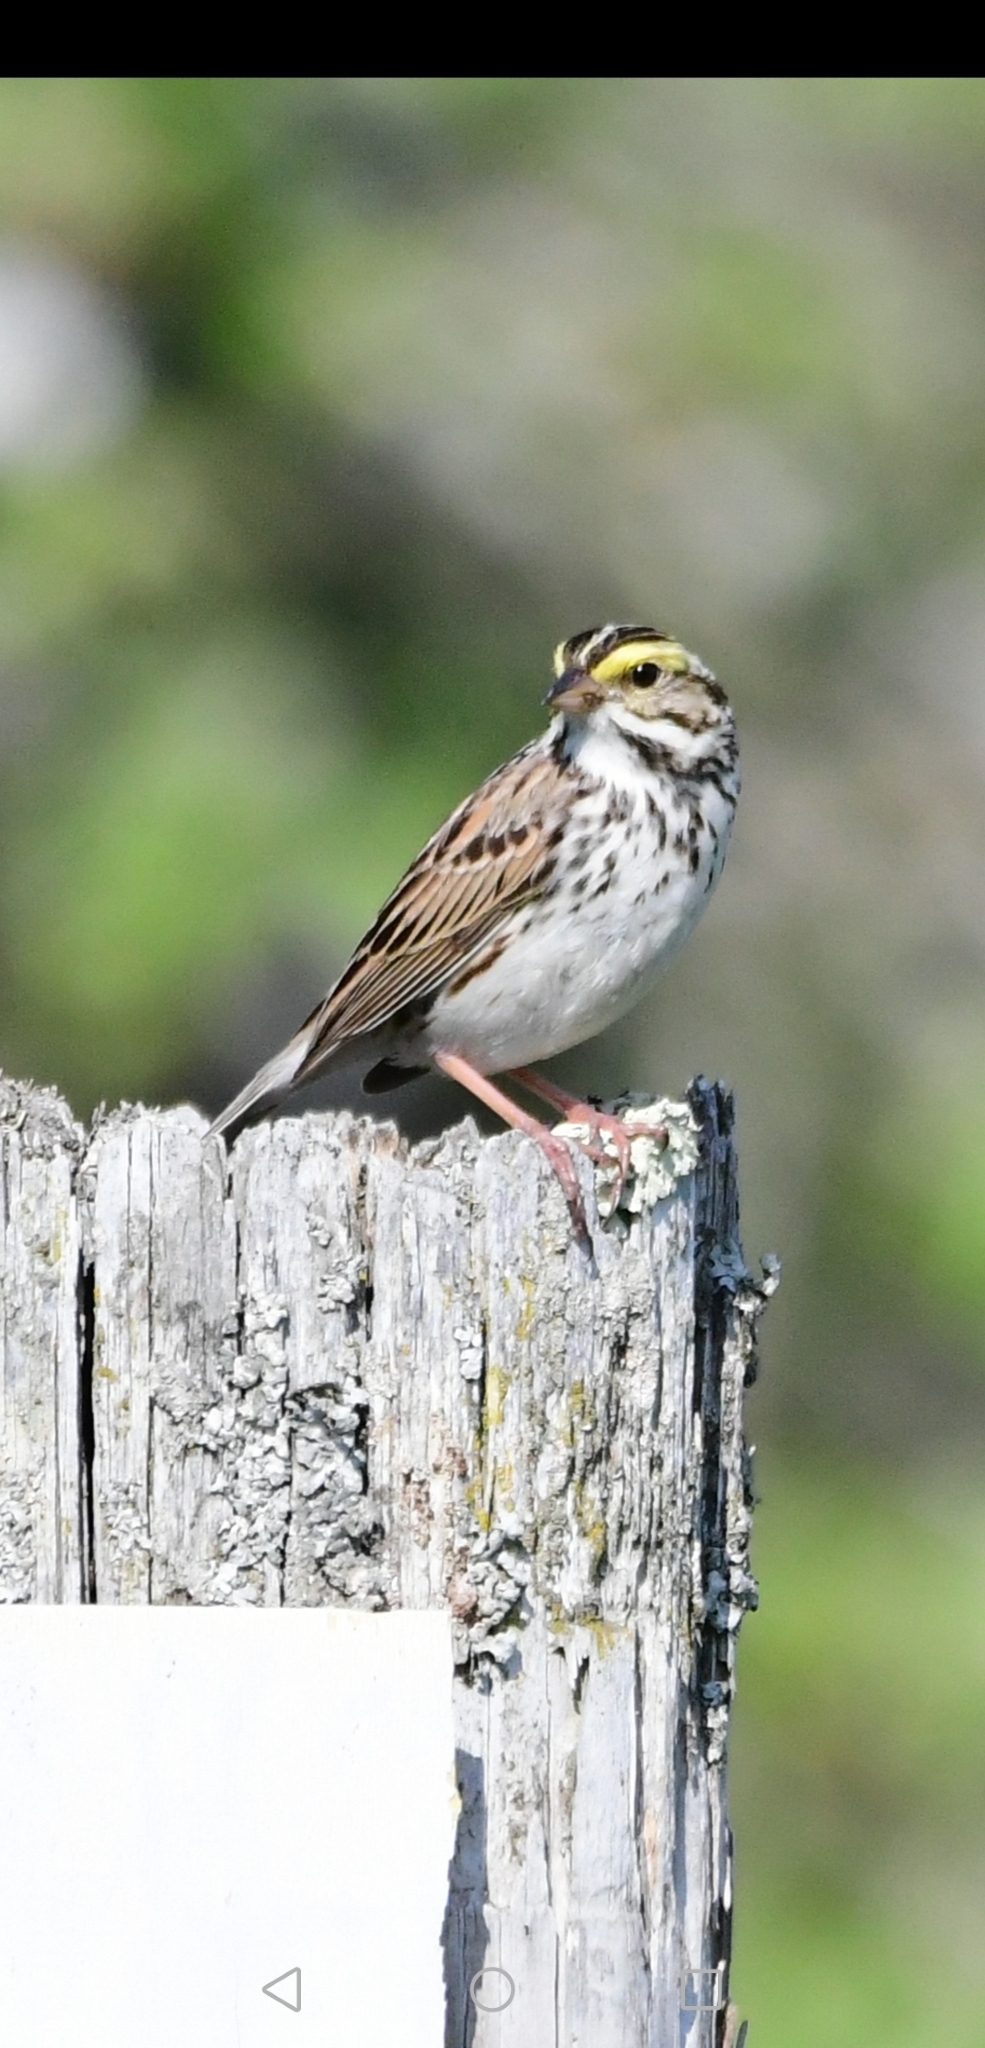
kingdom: Animalia
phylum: Chordata
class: Aves
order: Passeriformes
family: Passerellidae
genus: Passerculus
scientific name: Passerculus sandwichensis
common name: Savannah sparrow
